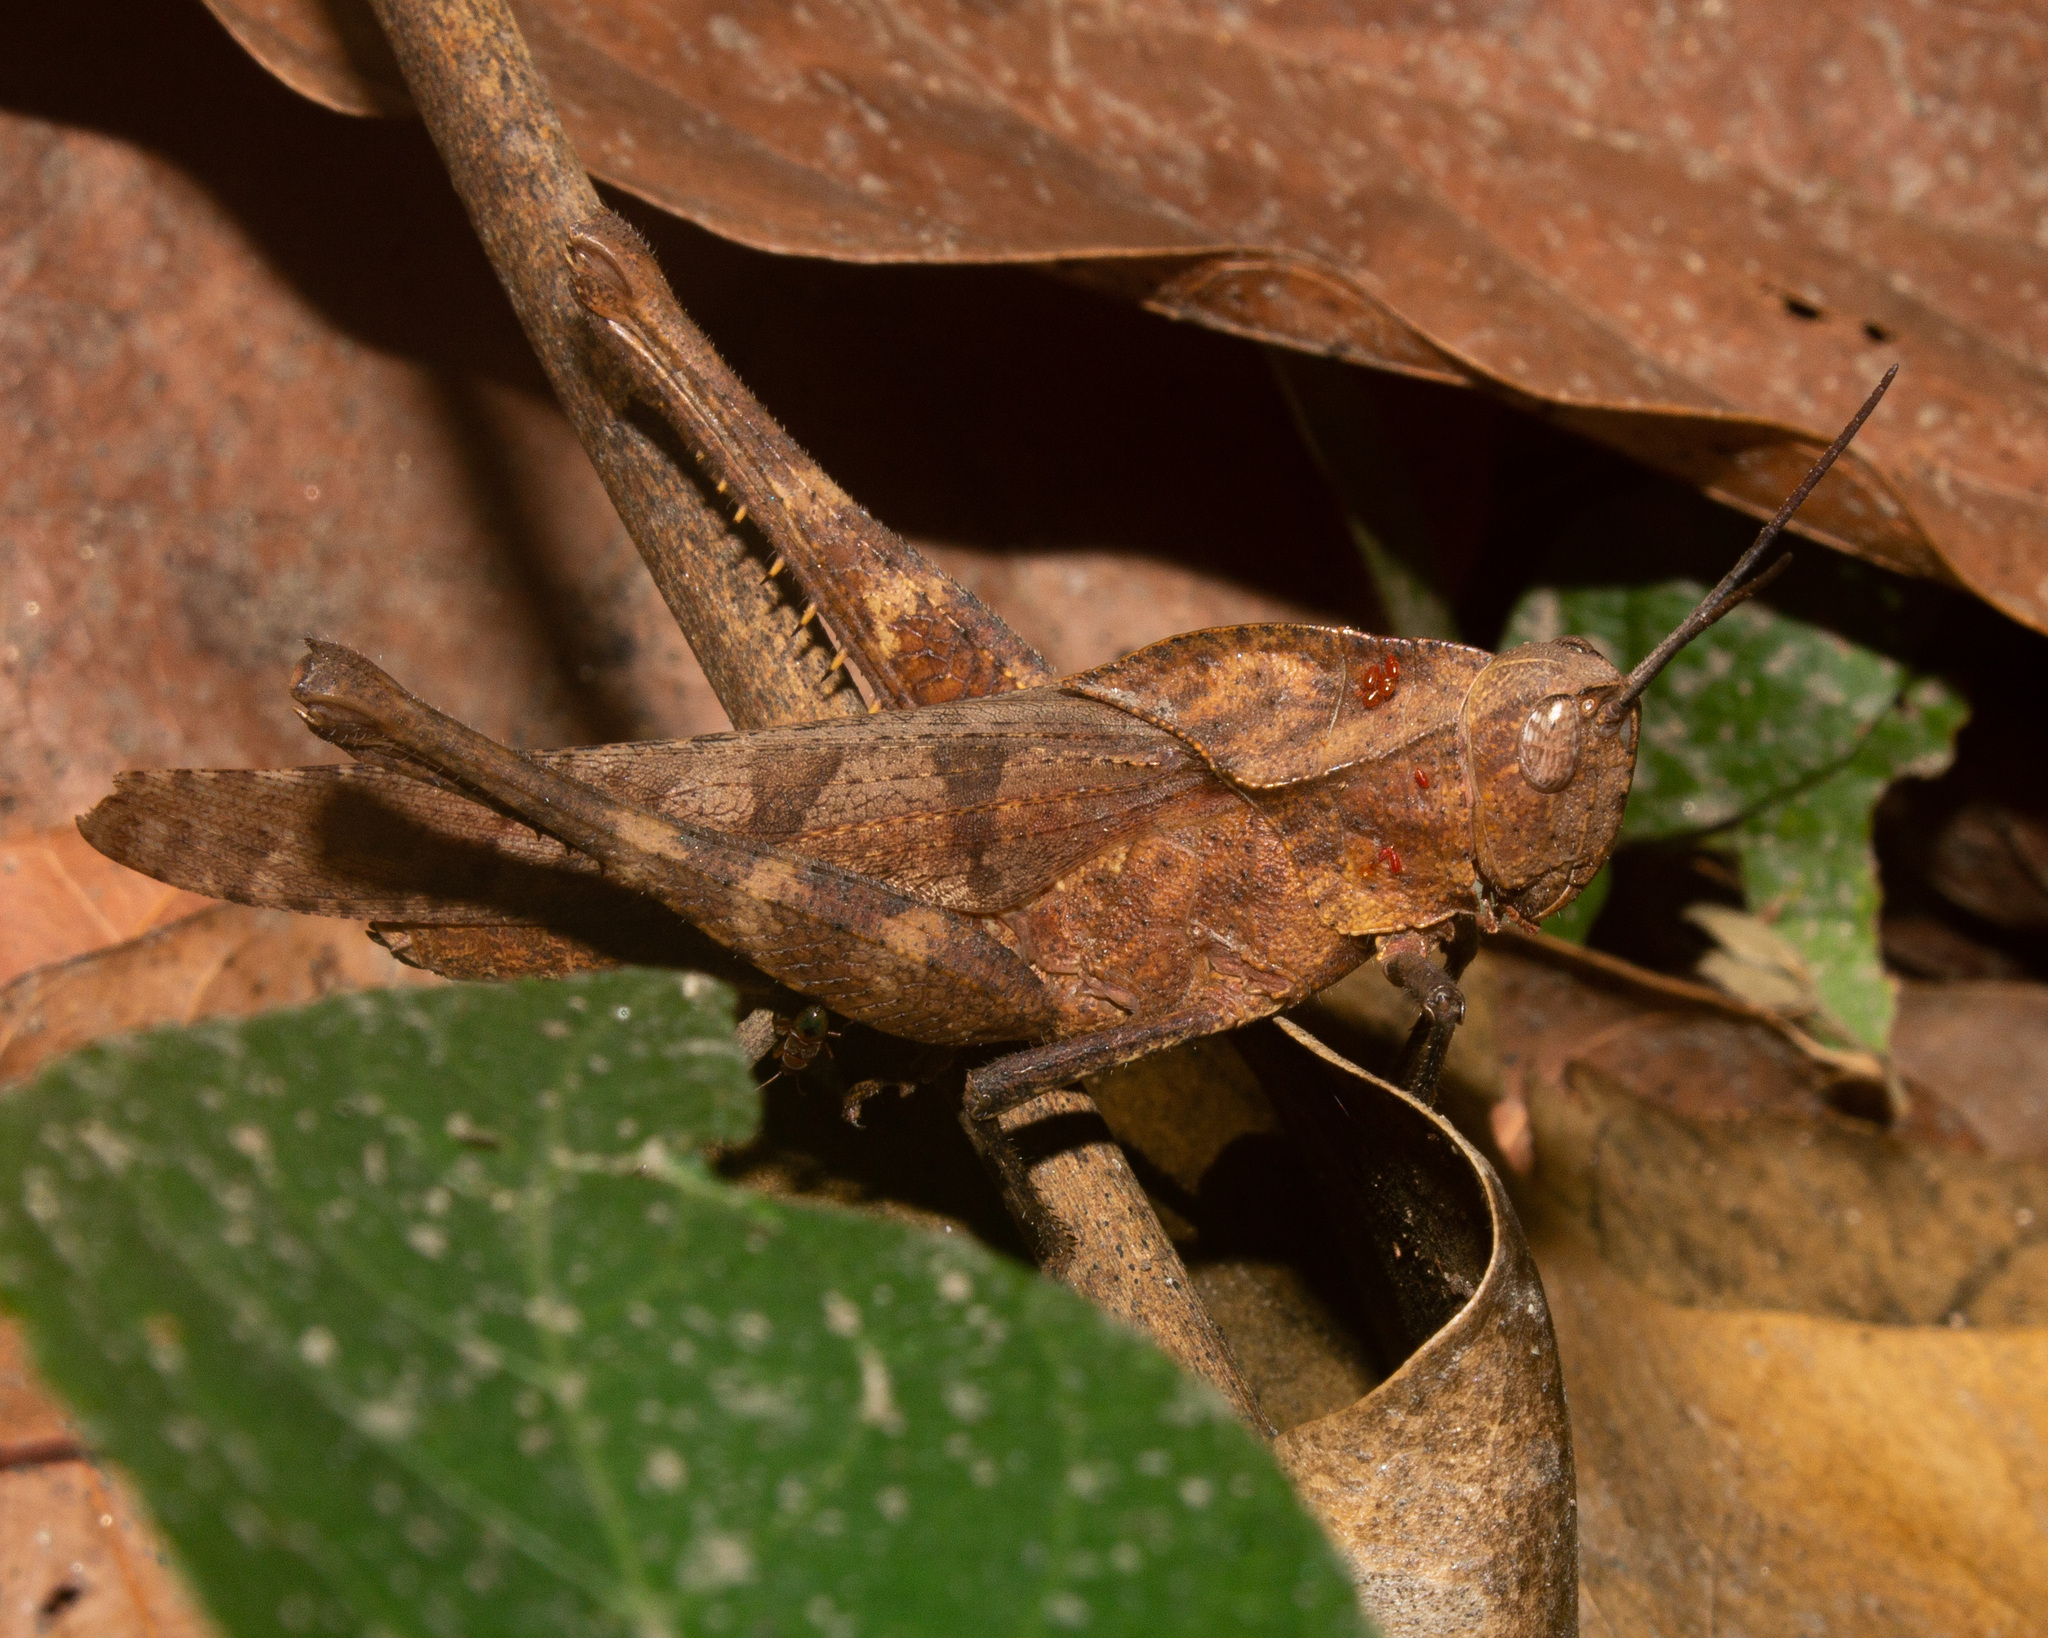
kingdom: Animalia
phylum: Arthropoda
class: Insecta
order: Orthoptera
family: Romaleidae
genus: Xyleus
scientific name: Xyleus discoideus
